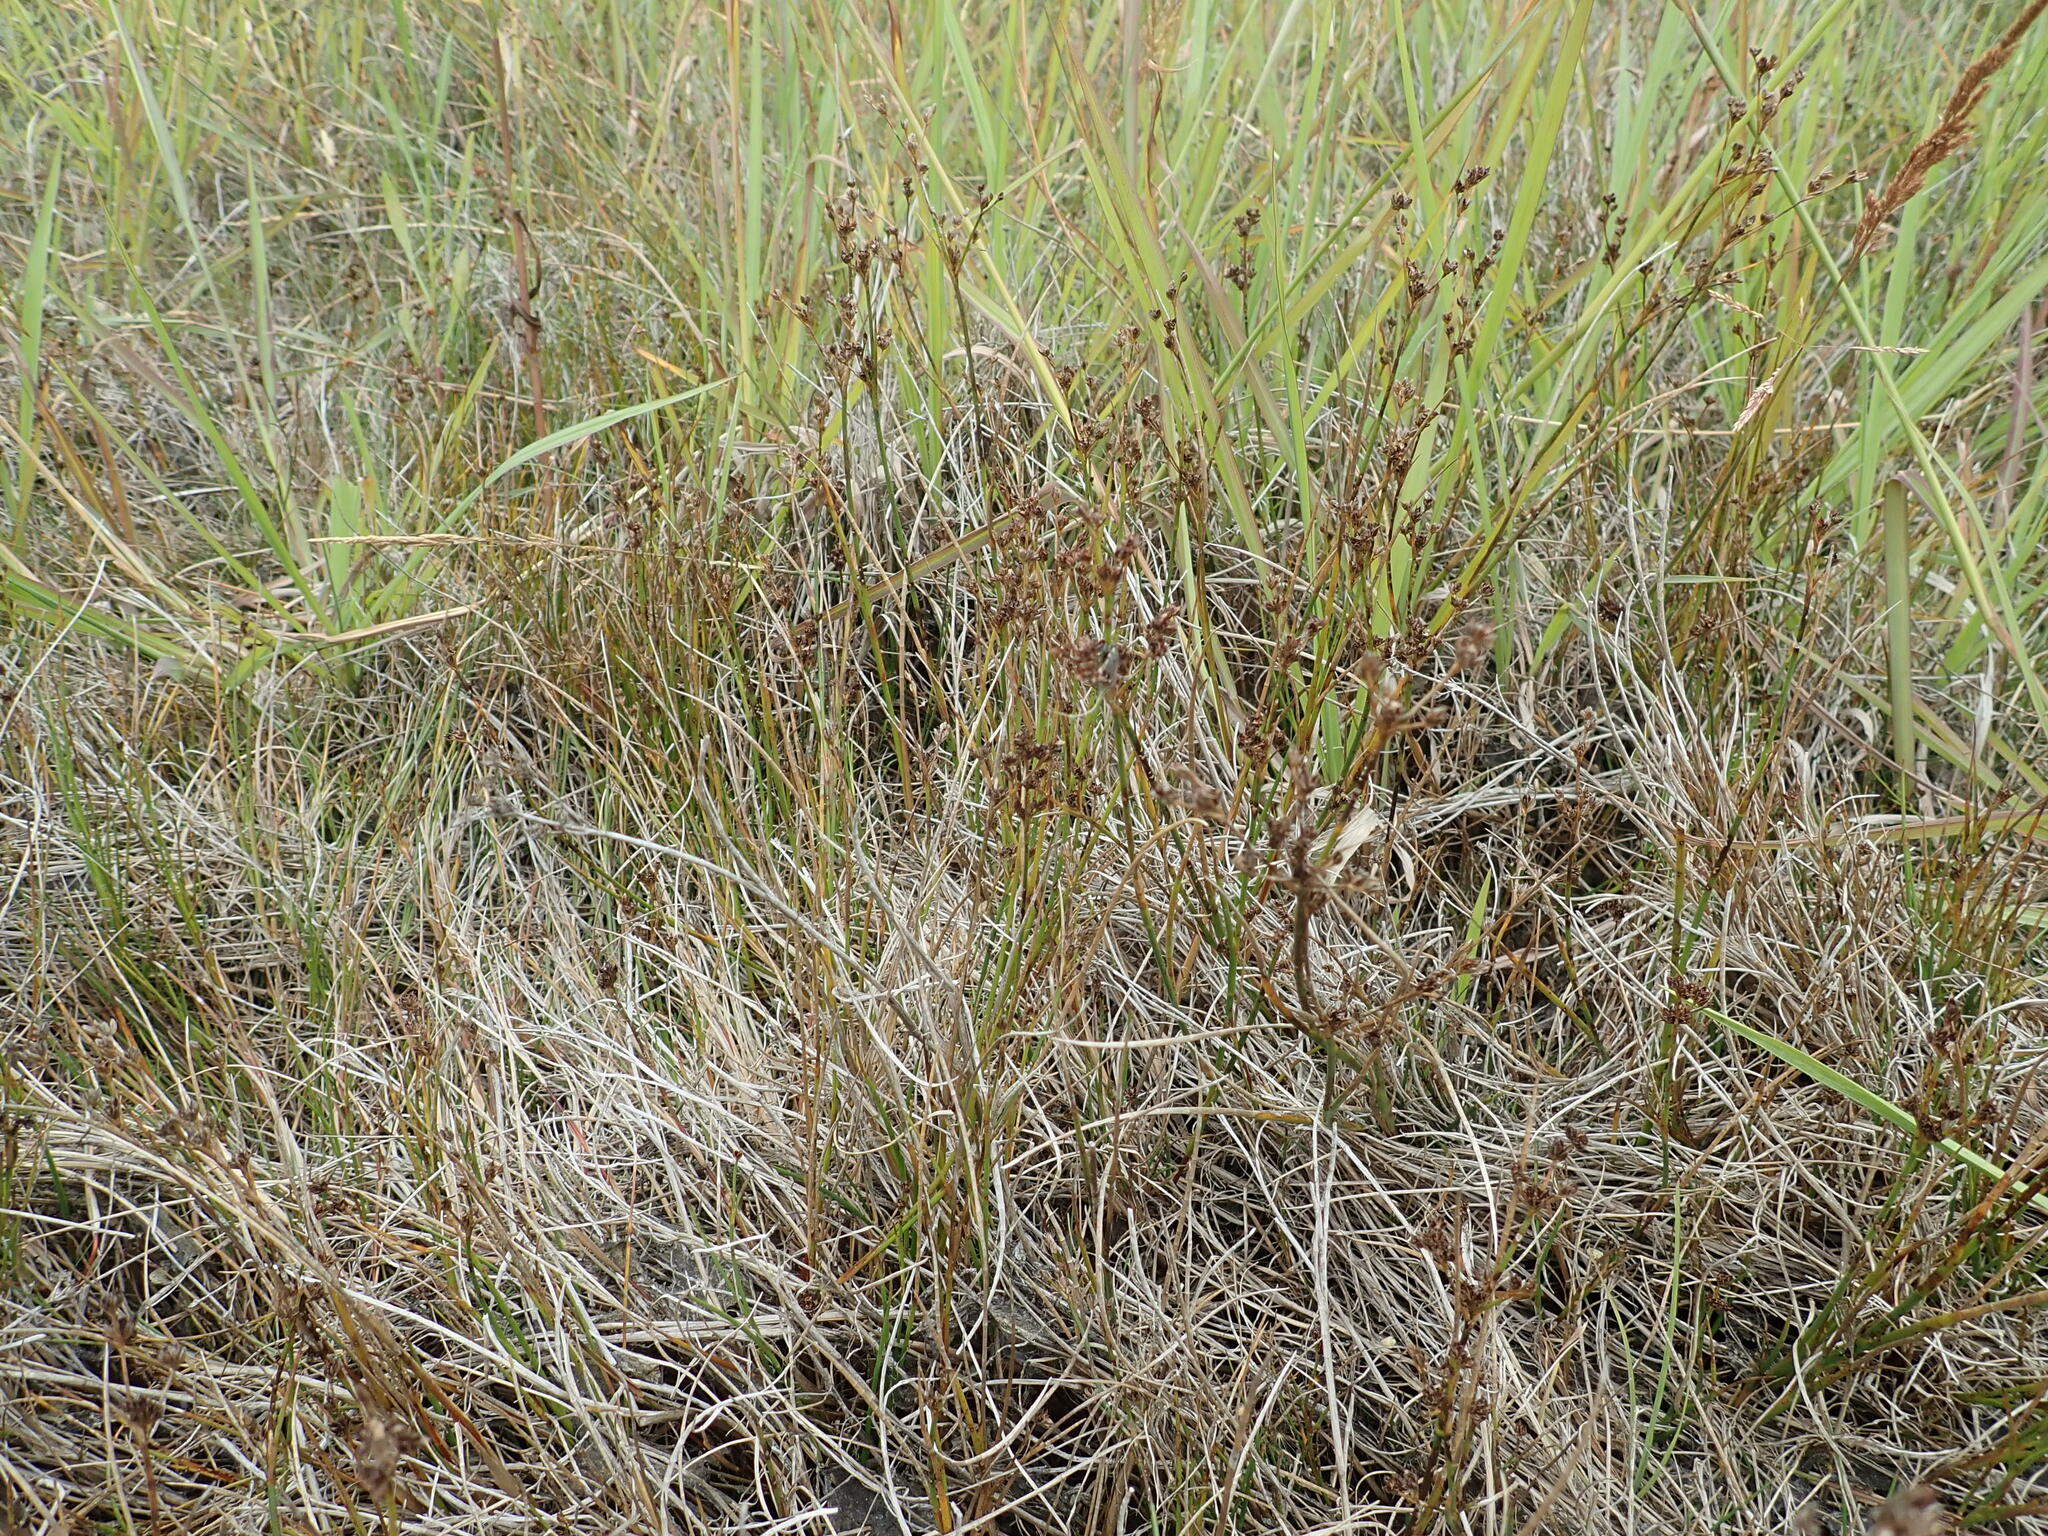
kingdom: Plantae
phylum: Tracheophyta
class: Liliopsida
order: Poales
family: Juncaceae
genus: Juncus
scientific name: Juncus articulatus
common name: Jointed rush
